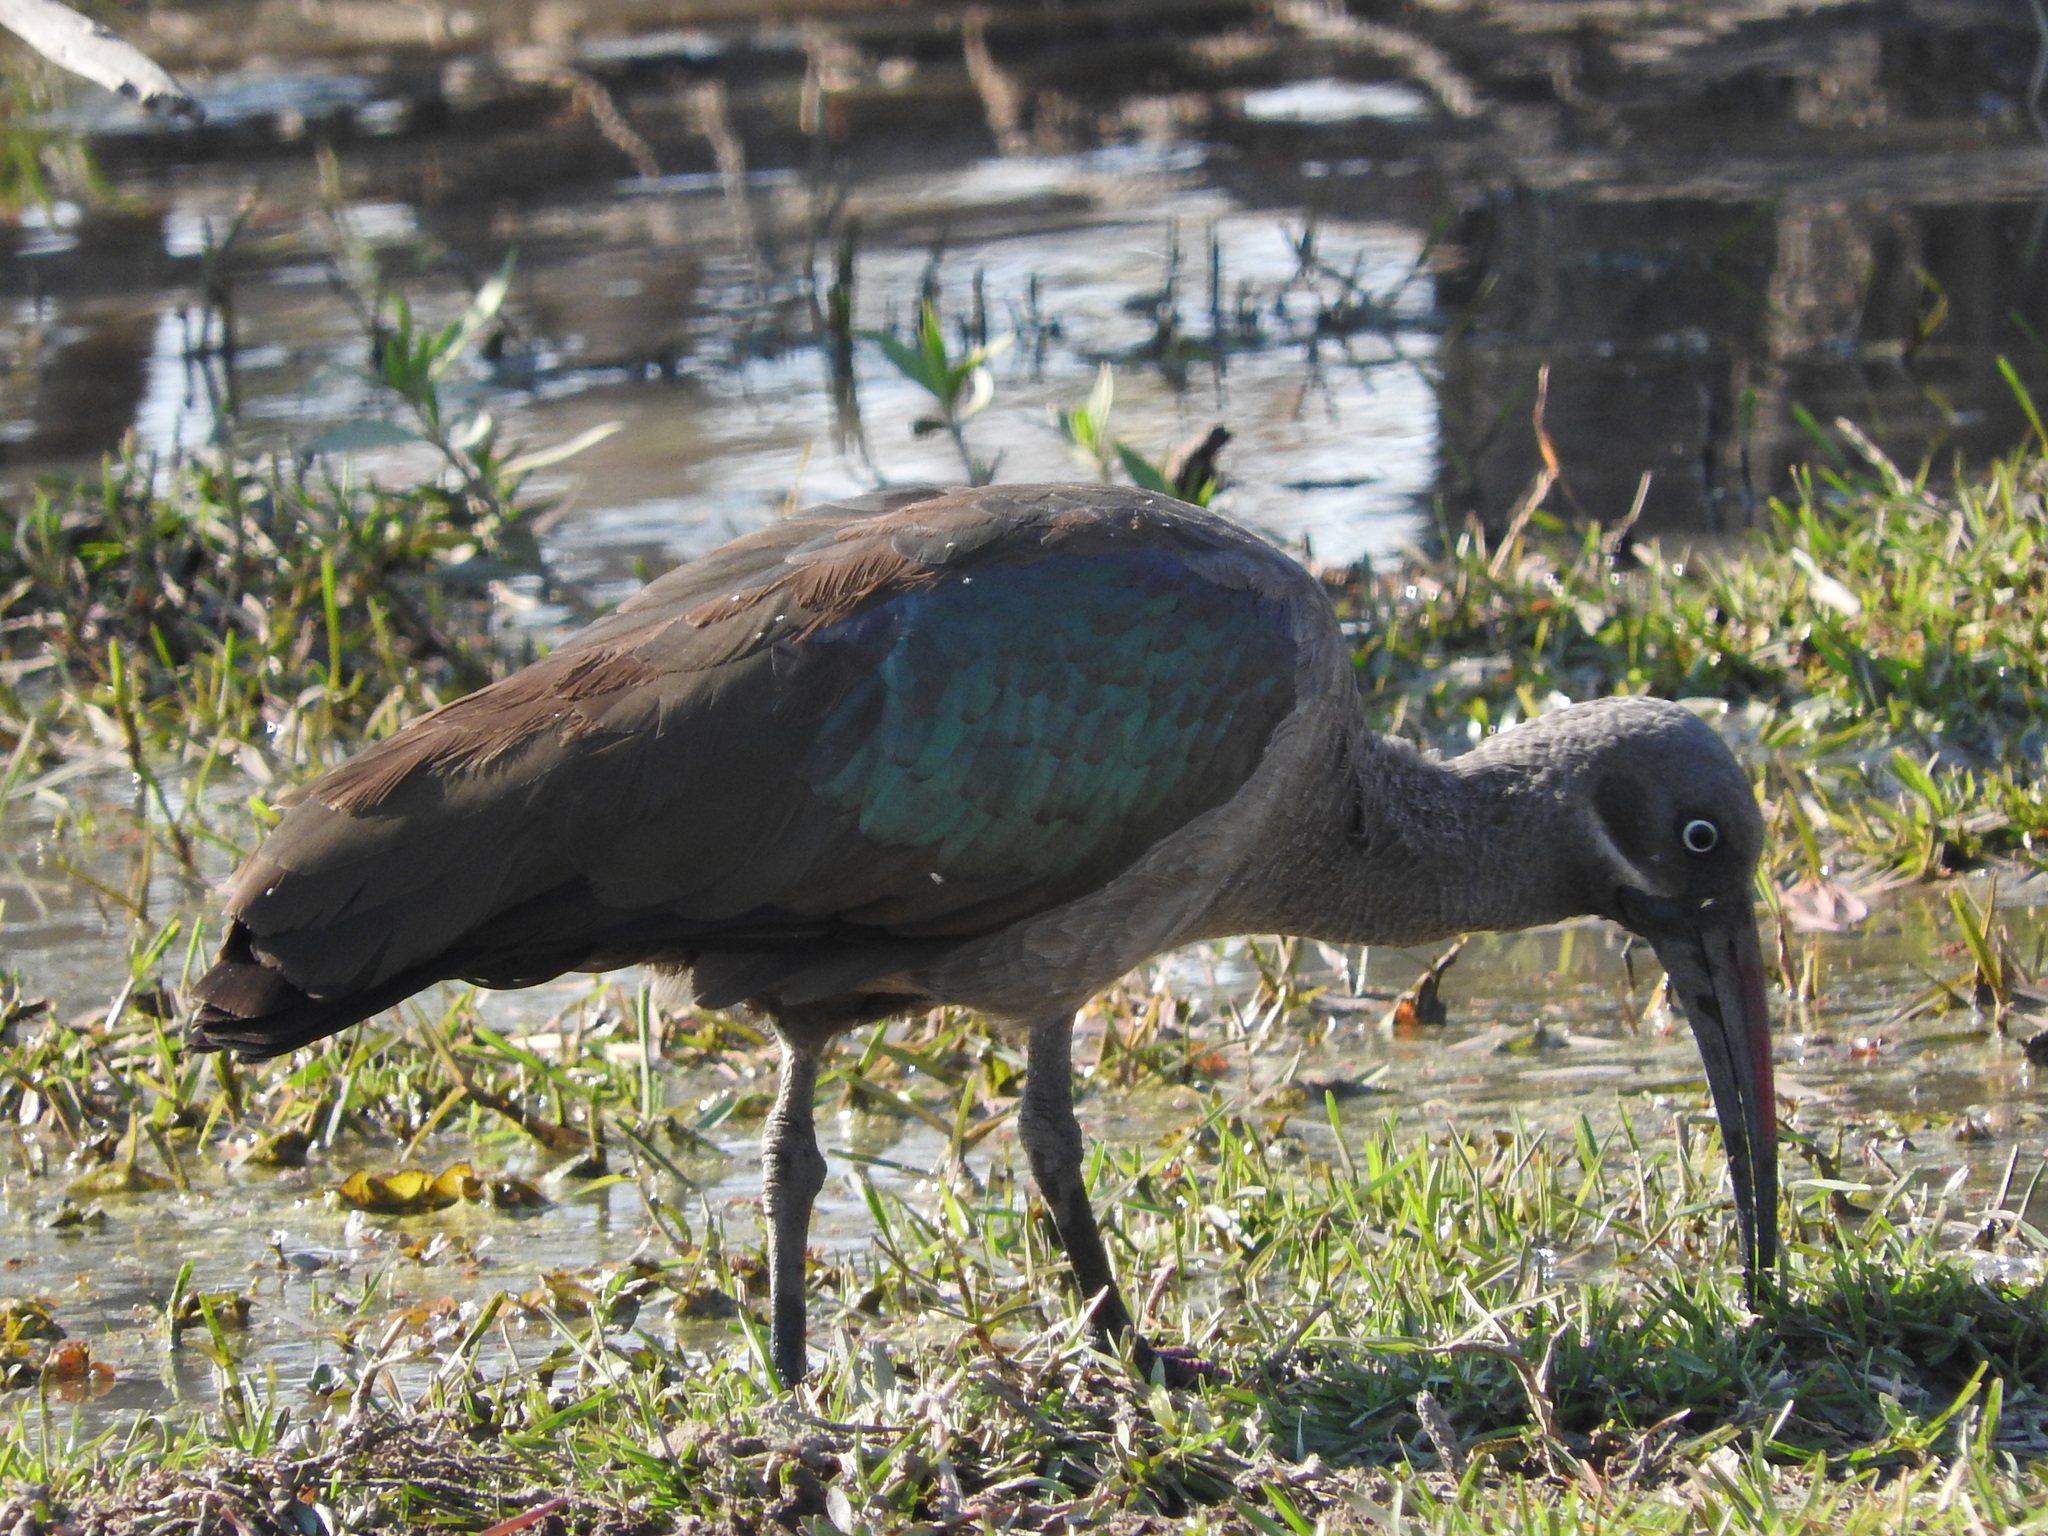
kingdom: Animalia
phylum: Chordata
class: Aves
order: Pelecaniformes
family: Threskiornithidae
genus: Bostrychia
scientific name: Bostrychia hagedash
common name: Hadada ibis
